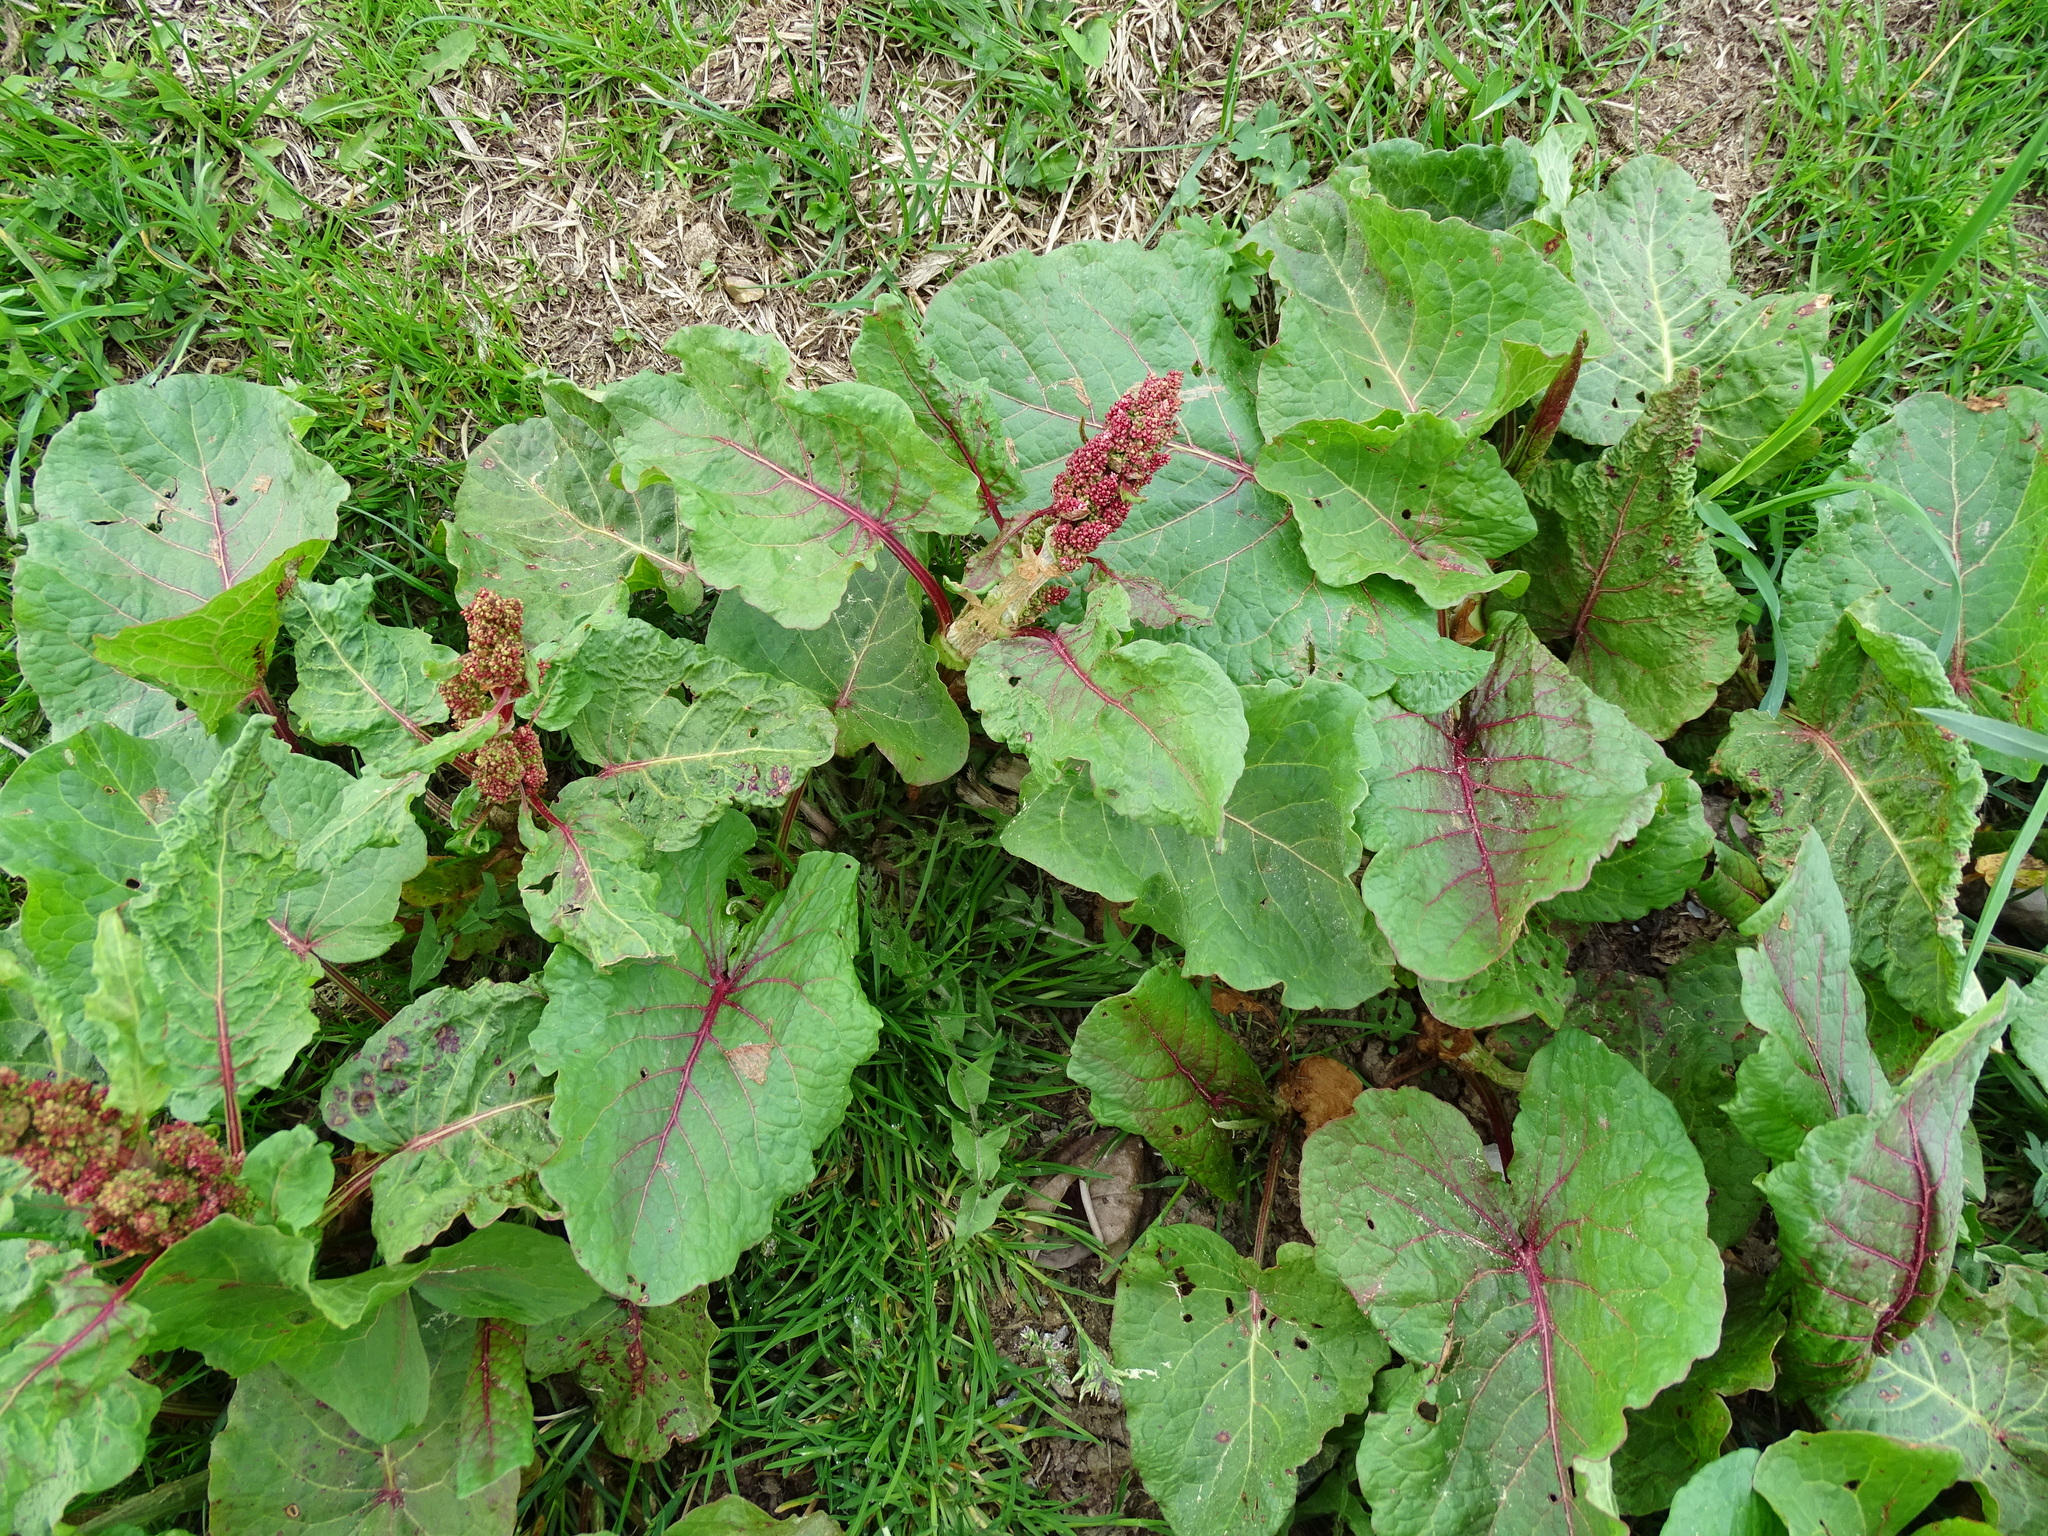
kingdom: Plantae
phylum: Tracheophyta
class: Magnoliopsida
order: Caryophyllales
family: Polygonaceae
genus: Rumex
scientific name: Rumex alpinus
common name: Alpine dock
